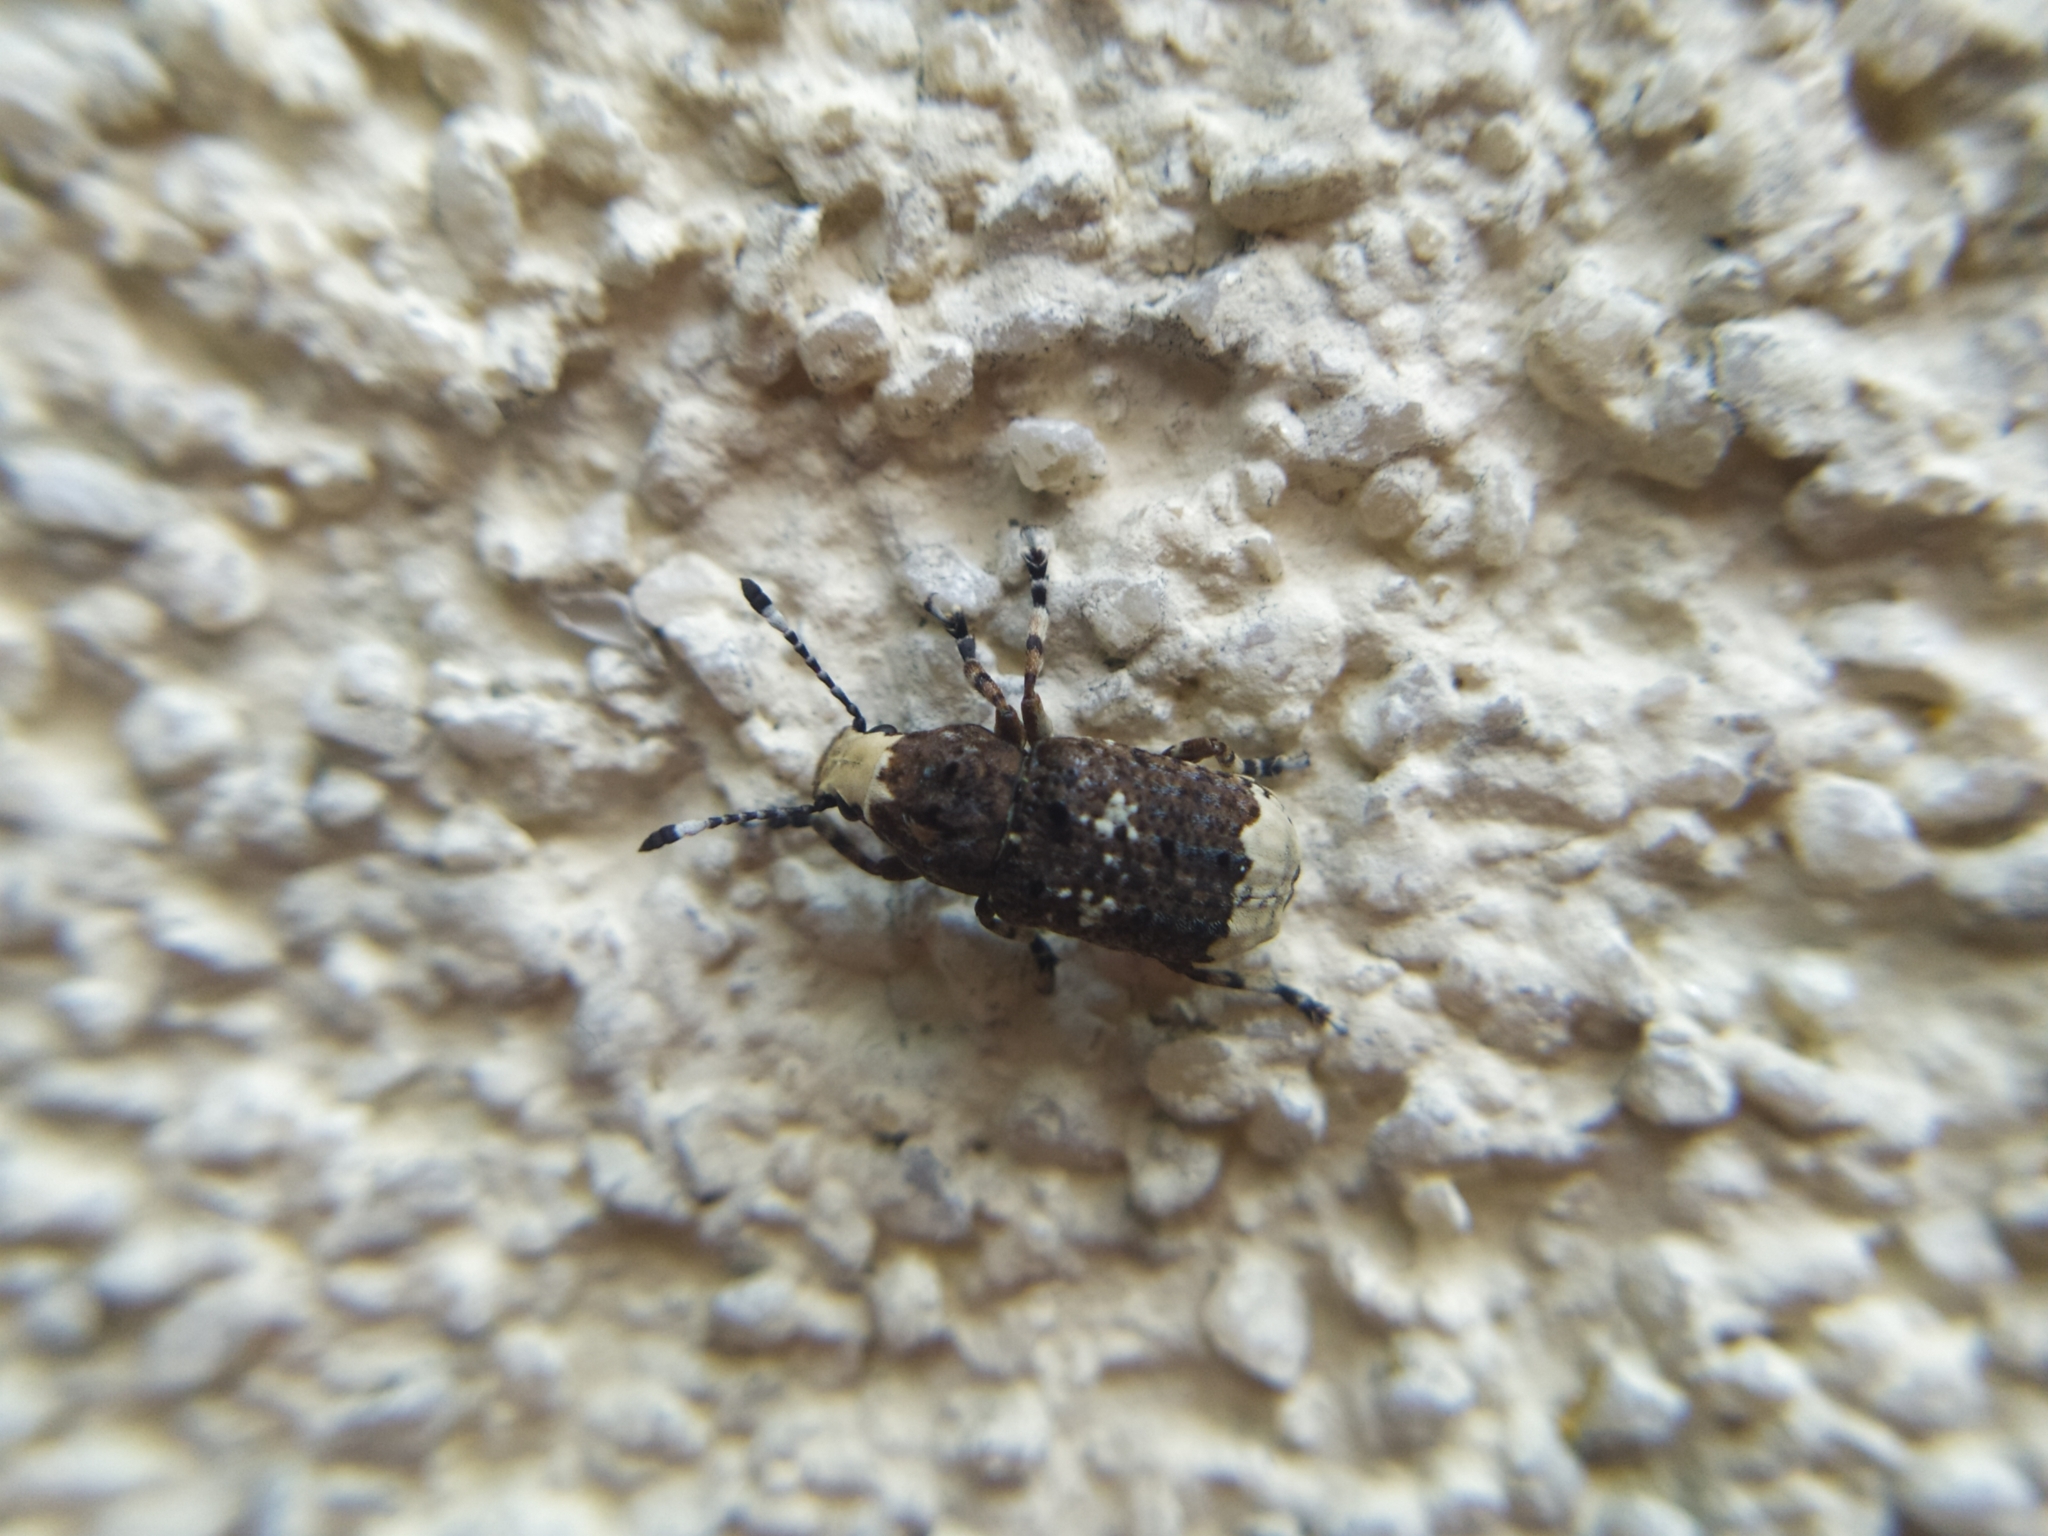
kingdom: Animalia
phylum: Arthropoda
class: Insecta
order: Coleoptera
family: Anthribidae
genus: Platystomos
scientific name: Platystomos albinus
